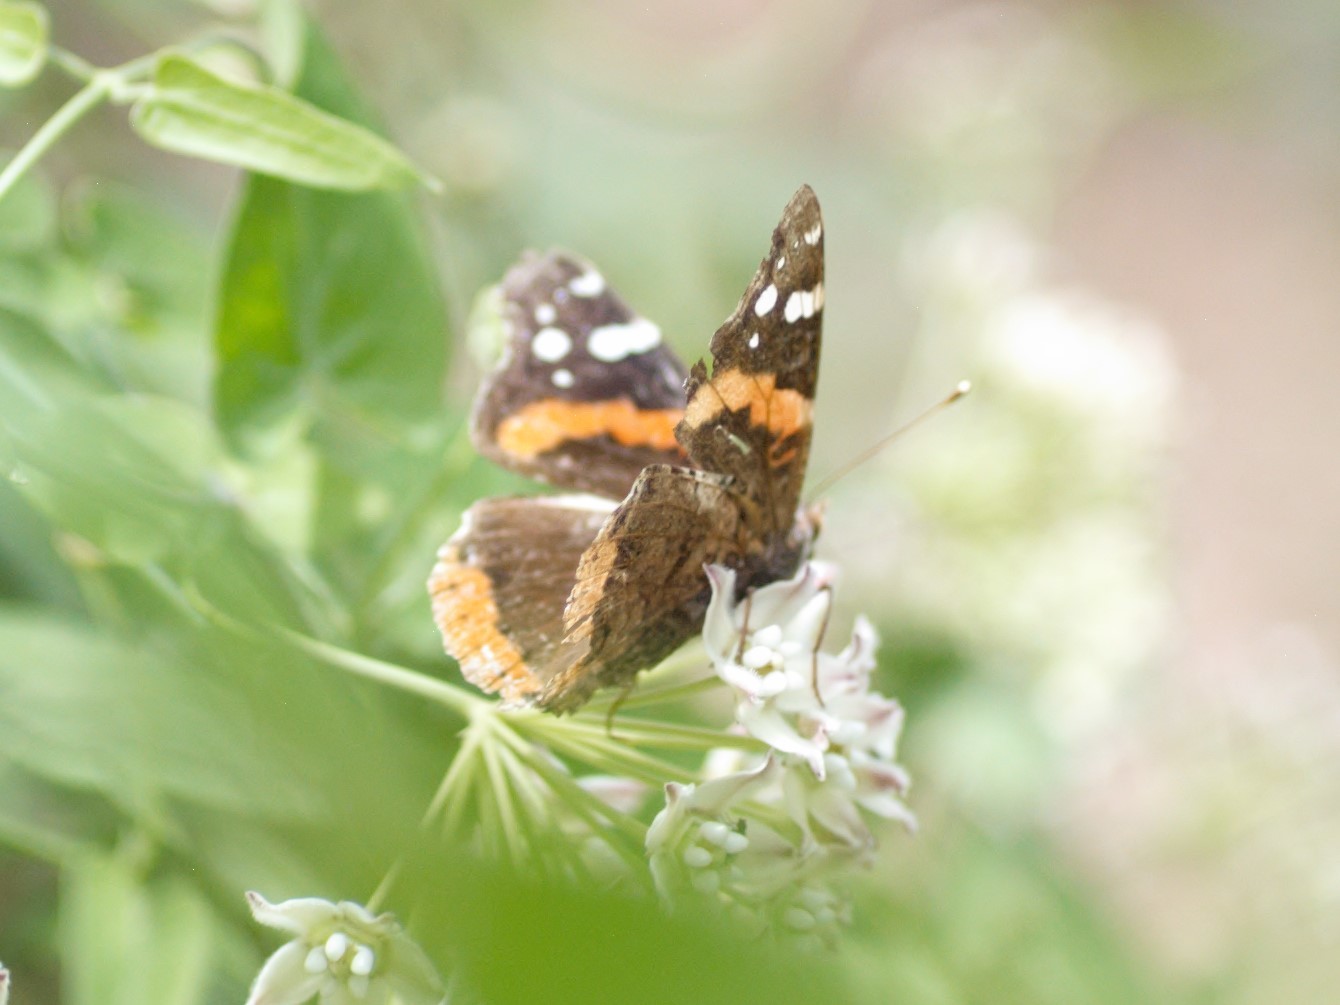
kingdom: Animalia
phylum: Arthropoda
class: Insecta
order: Lepidoptera
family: Nymphalidae
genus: Vanessa
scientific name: Vanessa atalanta
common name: Red admiral
